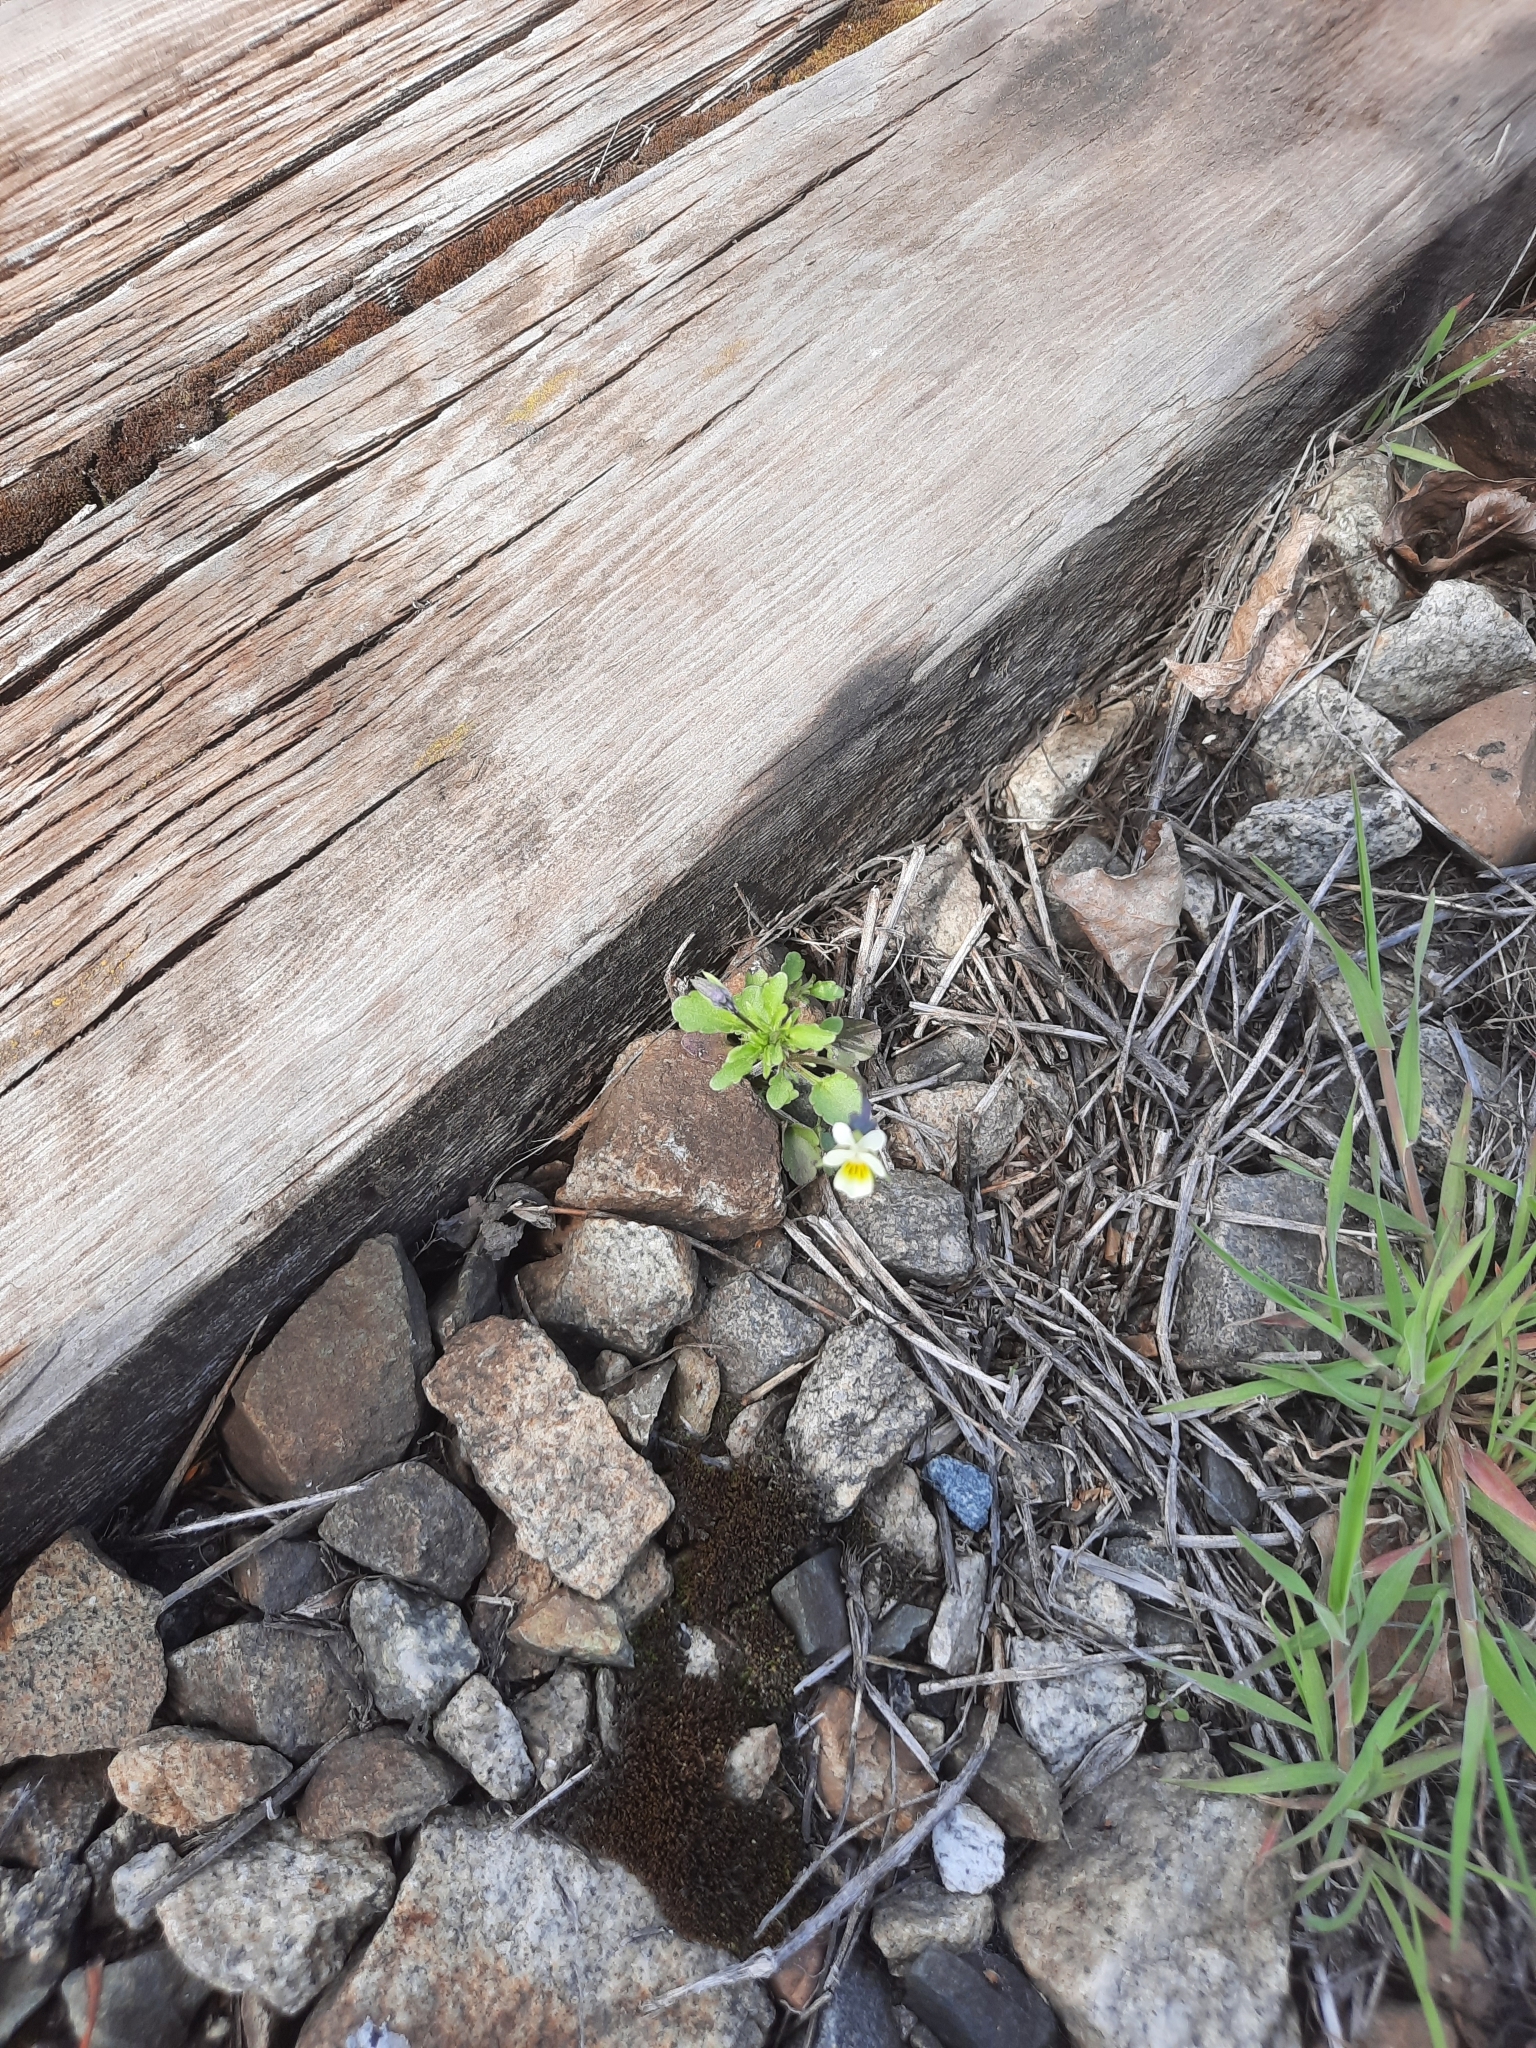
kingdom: Plantae
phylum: Tracheophyta
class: Magnoliopsida
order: Malpighiales
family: Violaceae
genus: Viola
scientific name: Viola arvensis
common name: Field pansy
